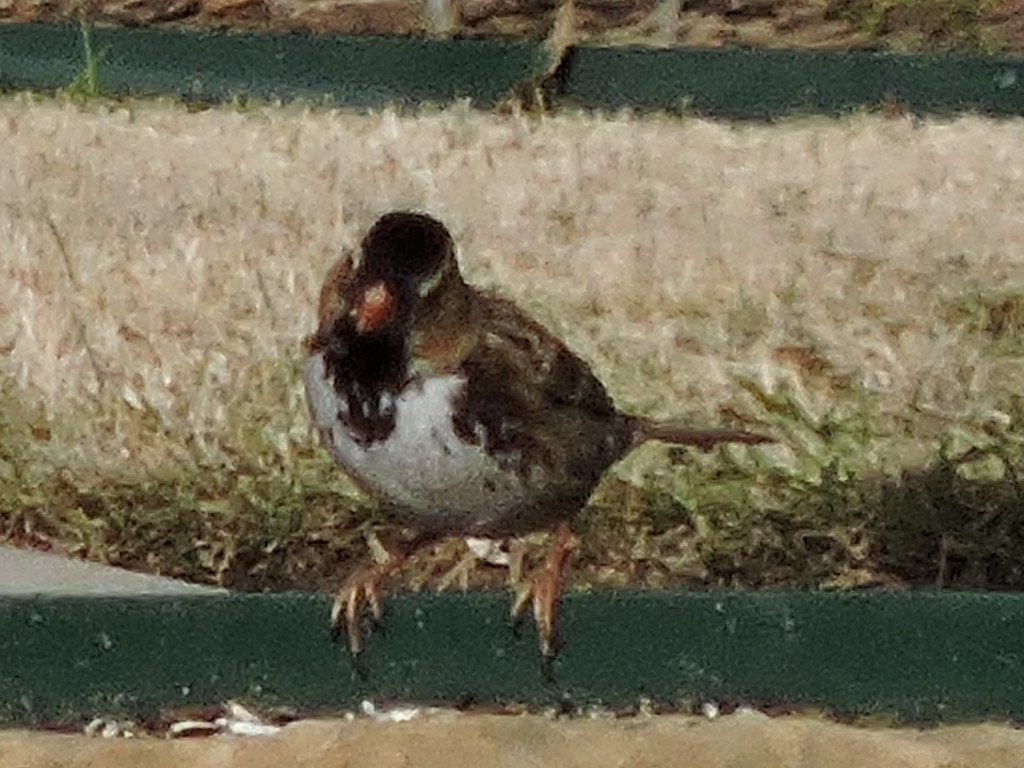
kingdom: Animalia
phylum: Chordata
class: Aves
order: Passeriformes
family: Passerellidae
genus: Zonotrichia
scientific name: Zonotrichia querula
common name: Harris's sparrow
